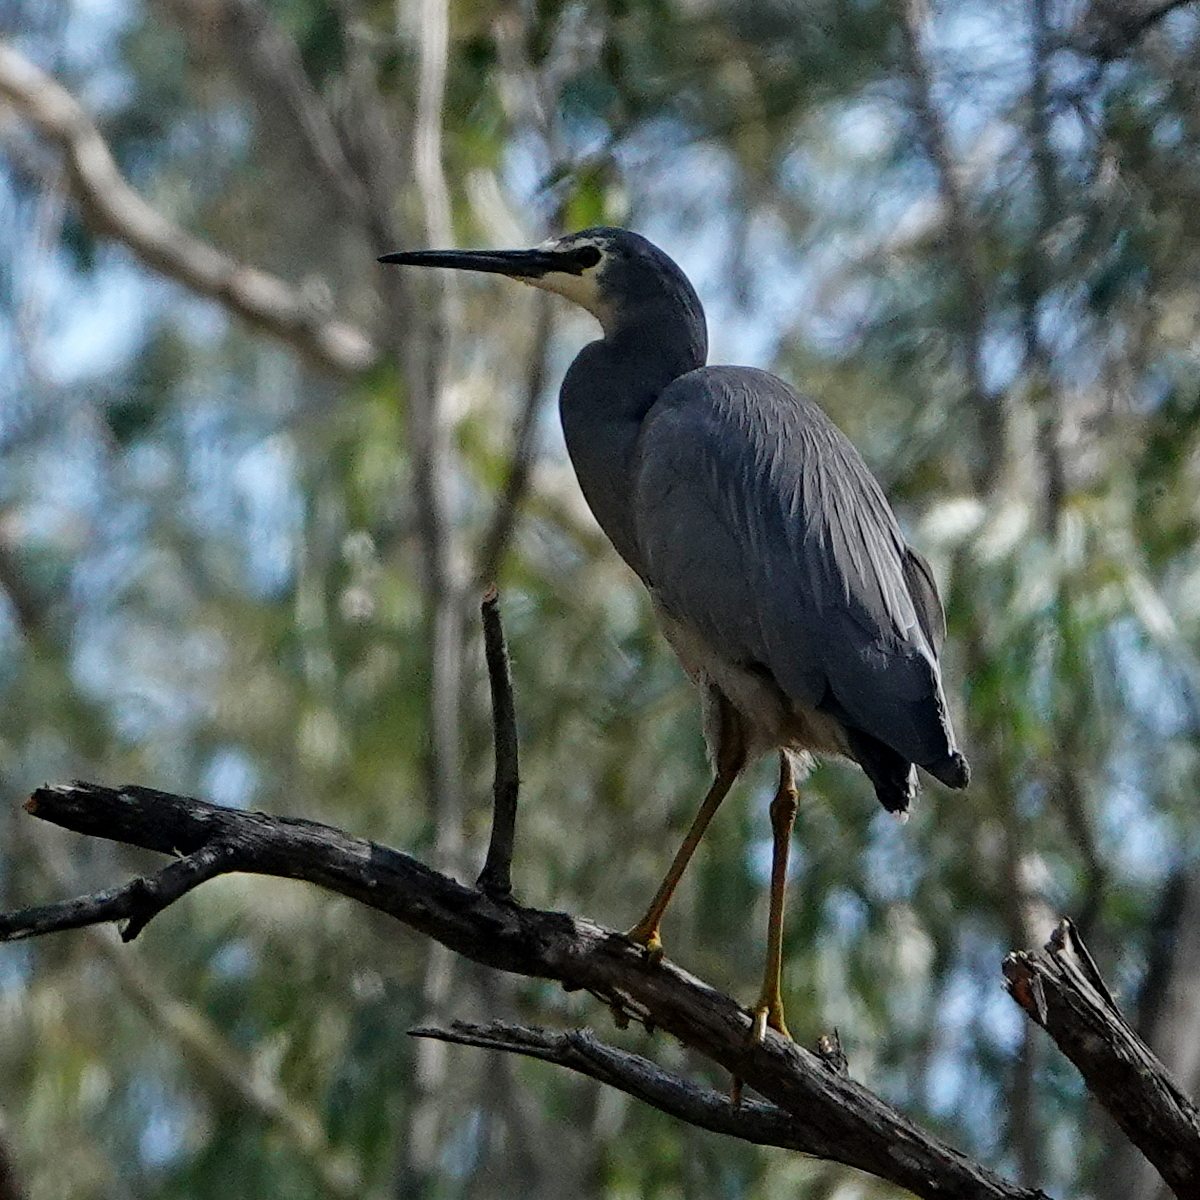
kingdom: Animalia
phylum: Chordata
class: Aves
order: Pelecaniformes
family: Ardeidae
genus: Egretta
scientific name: Egretta novaehollandiae
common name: White-faced heron
